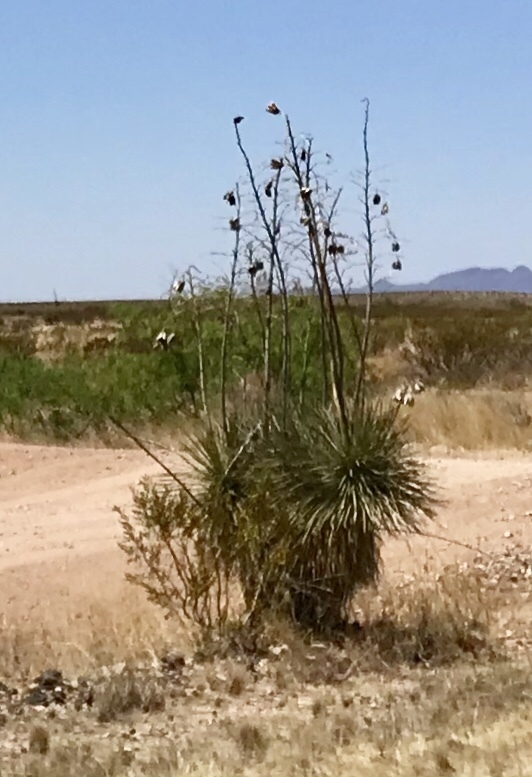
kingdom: Plantae
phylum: Tracheophyta
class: Liliopsida
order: Asparagales
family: Asparagaceae
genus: Yucca
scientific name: Yucca elata
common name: Palmella
